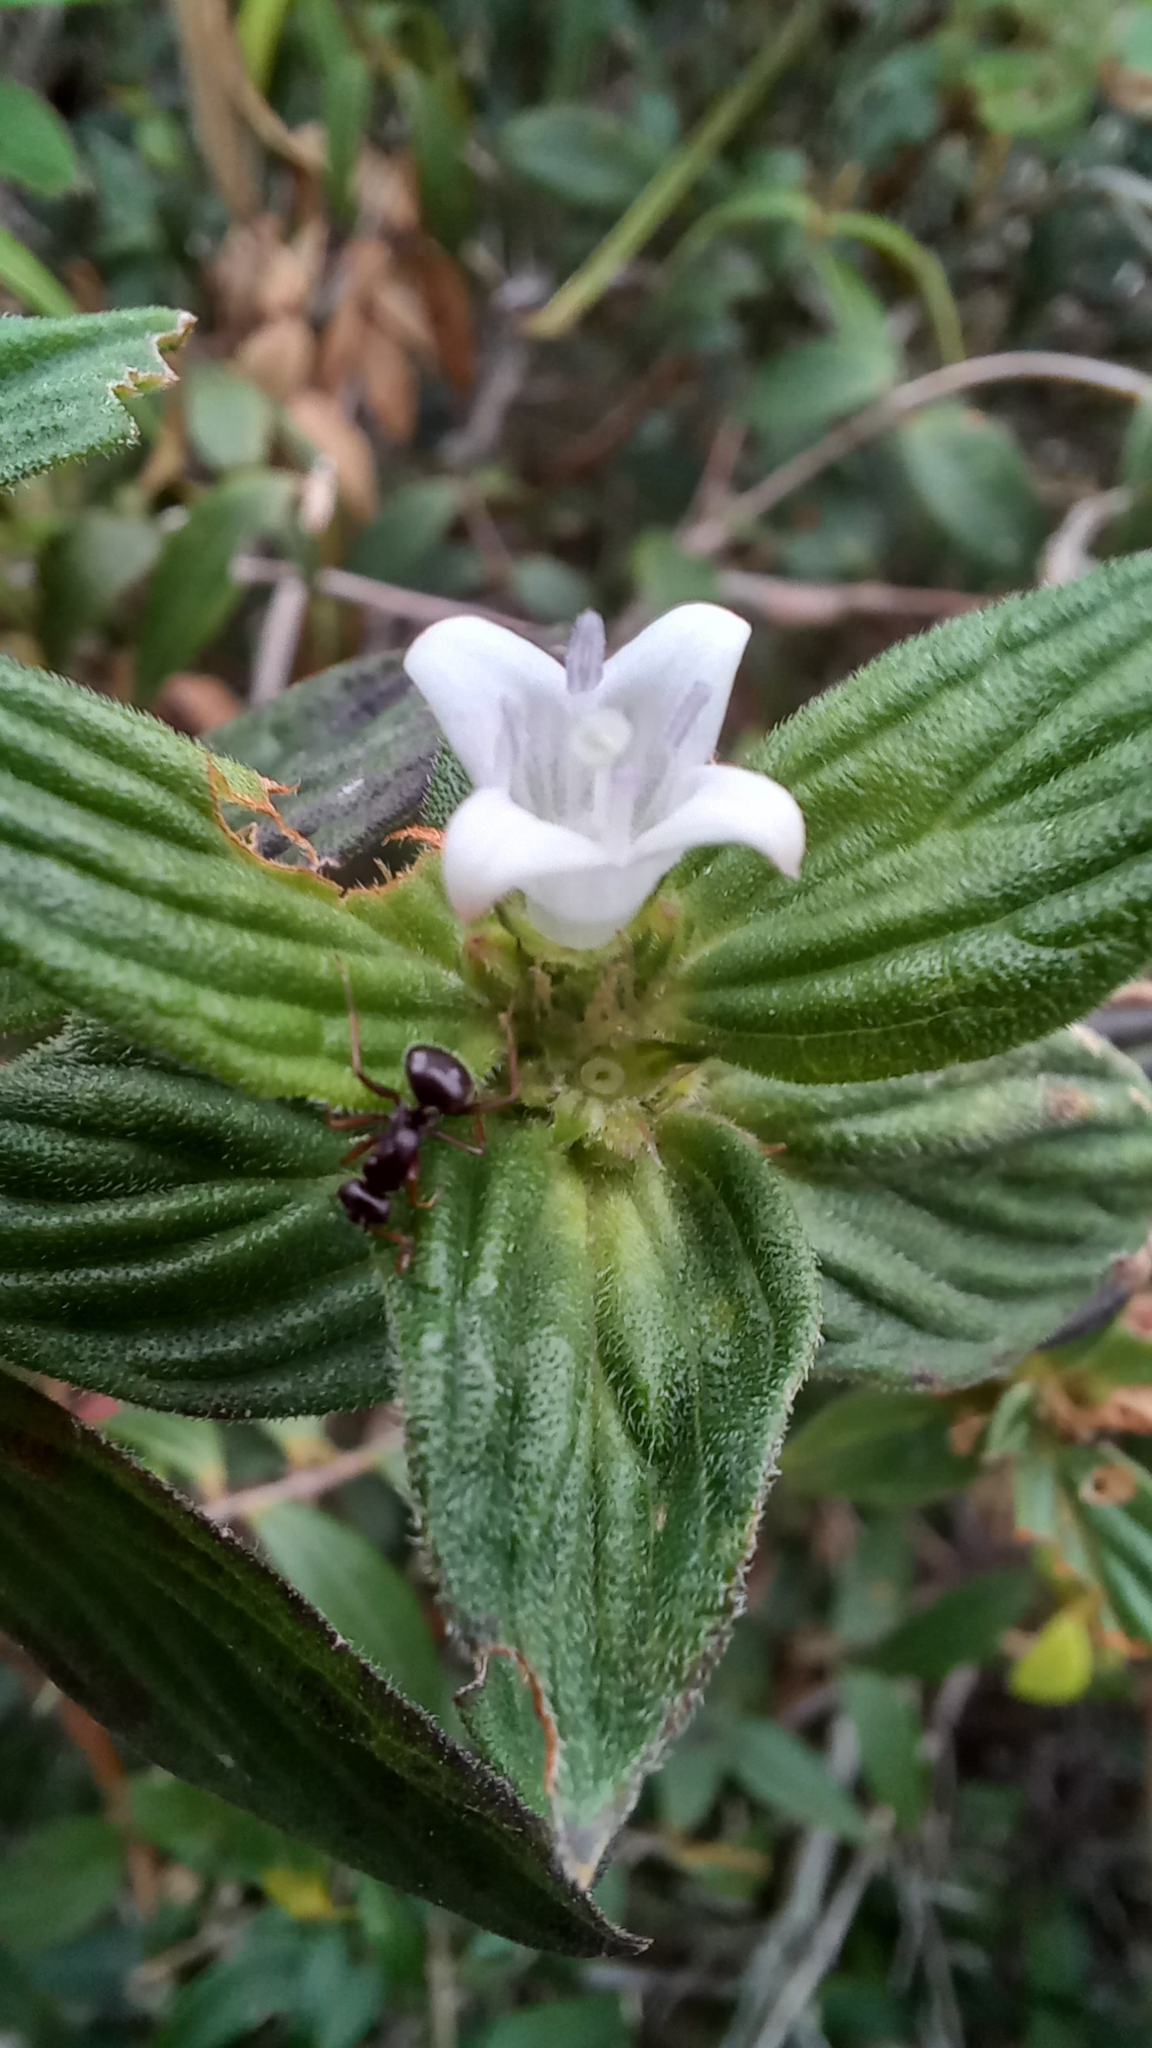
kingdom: Plantae
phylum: Tracheophyta
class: Magnoliopsida
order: Gentianales
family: Rubiaceae
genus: Hexasepalum
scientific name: Hexasepalum radulum
